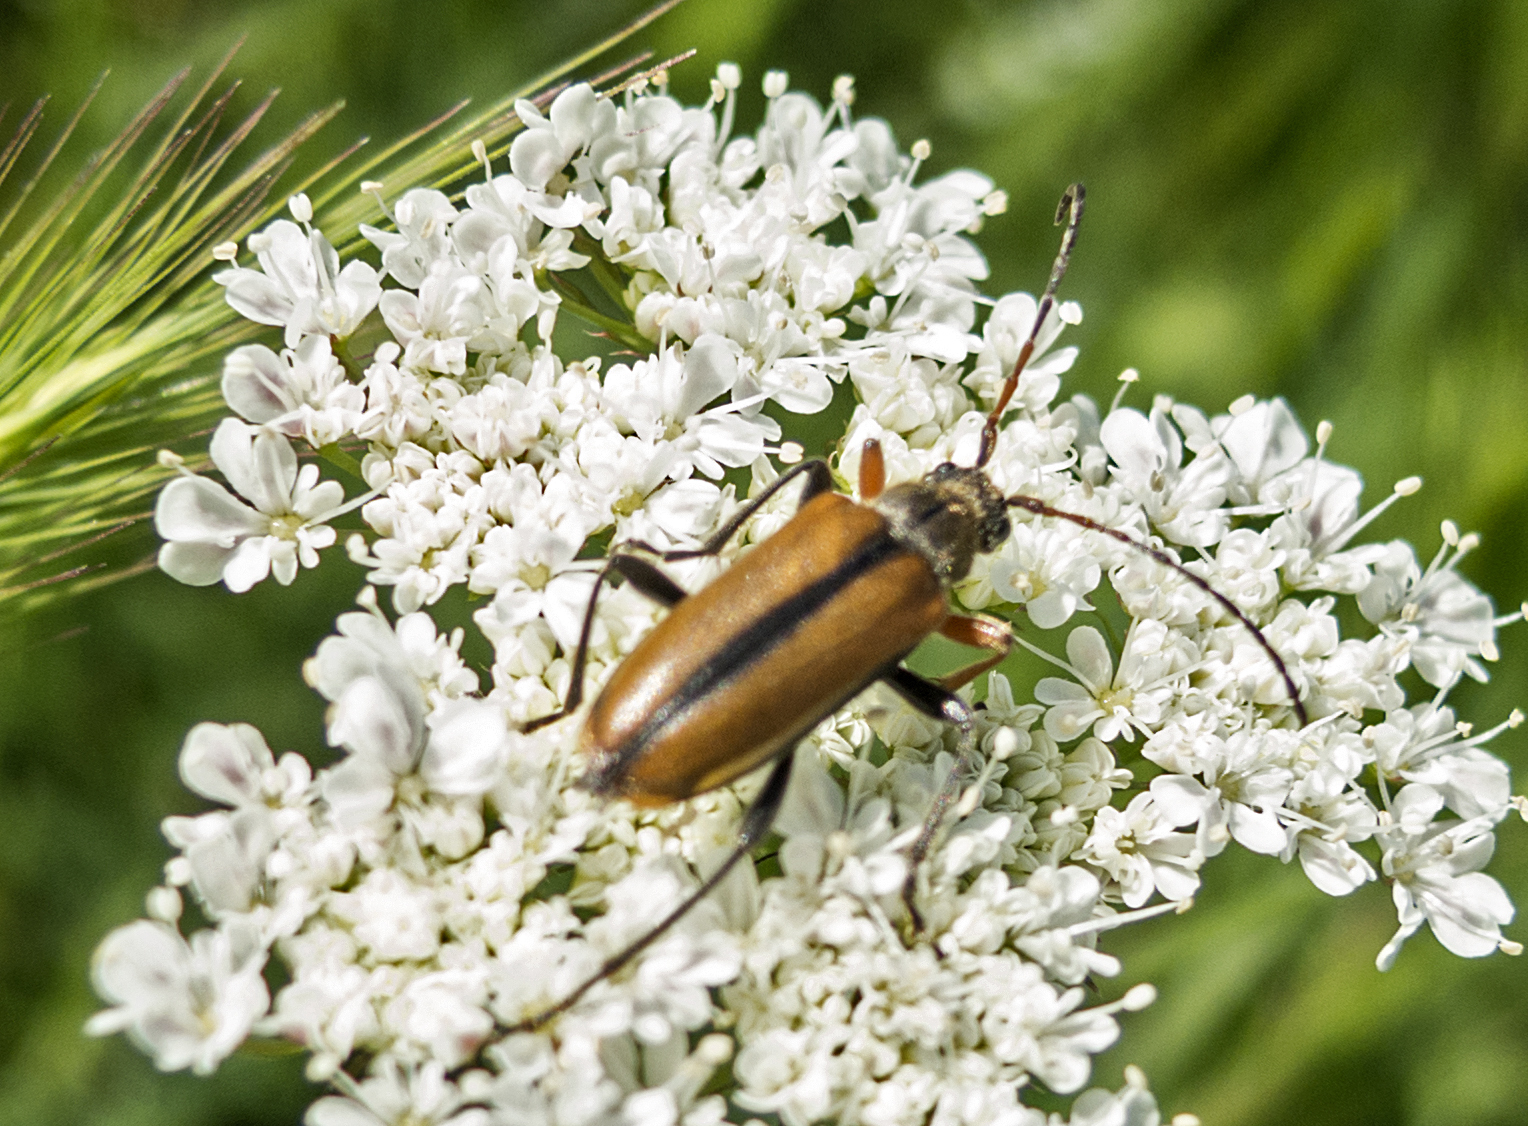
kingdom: Animalia
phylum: Arthropoda
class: Insecta
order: Coleoptera
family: Cerambycidae
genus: Cortodera
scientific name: Cortodera flavimana
